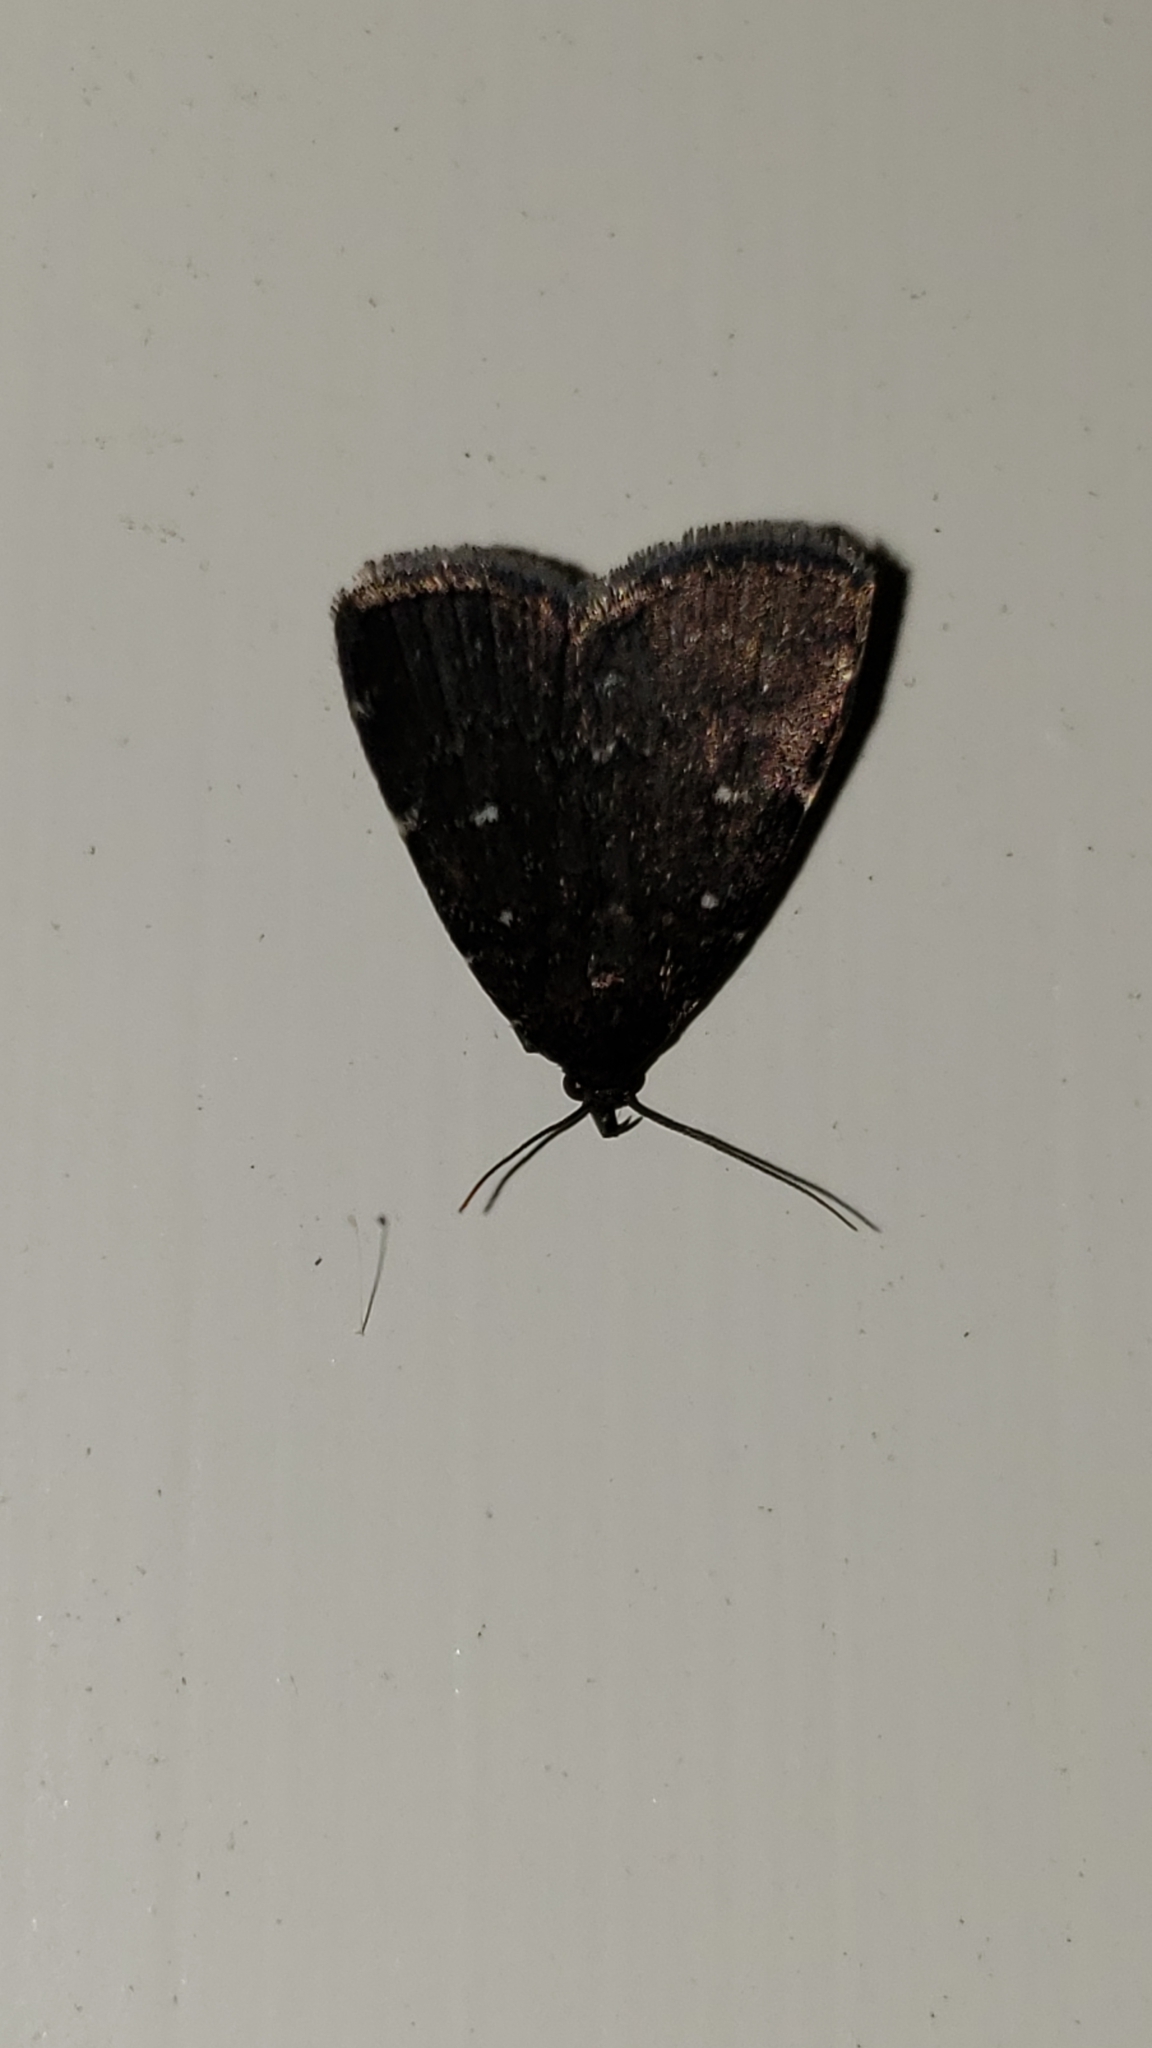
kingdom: Animalia
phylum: Arthropoda
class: Insecta
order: Lepidoptera
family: Erebidae
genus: Idia
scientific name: Idia julia
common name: Julia's idia moth
